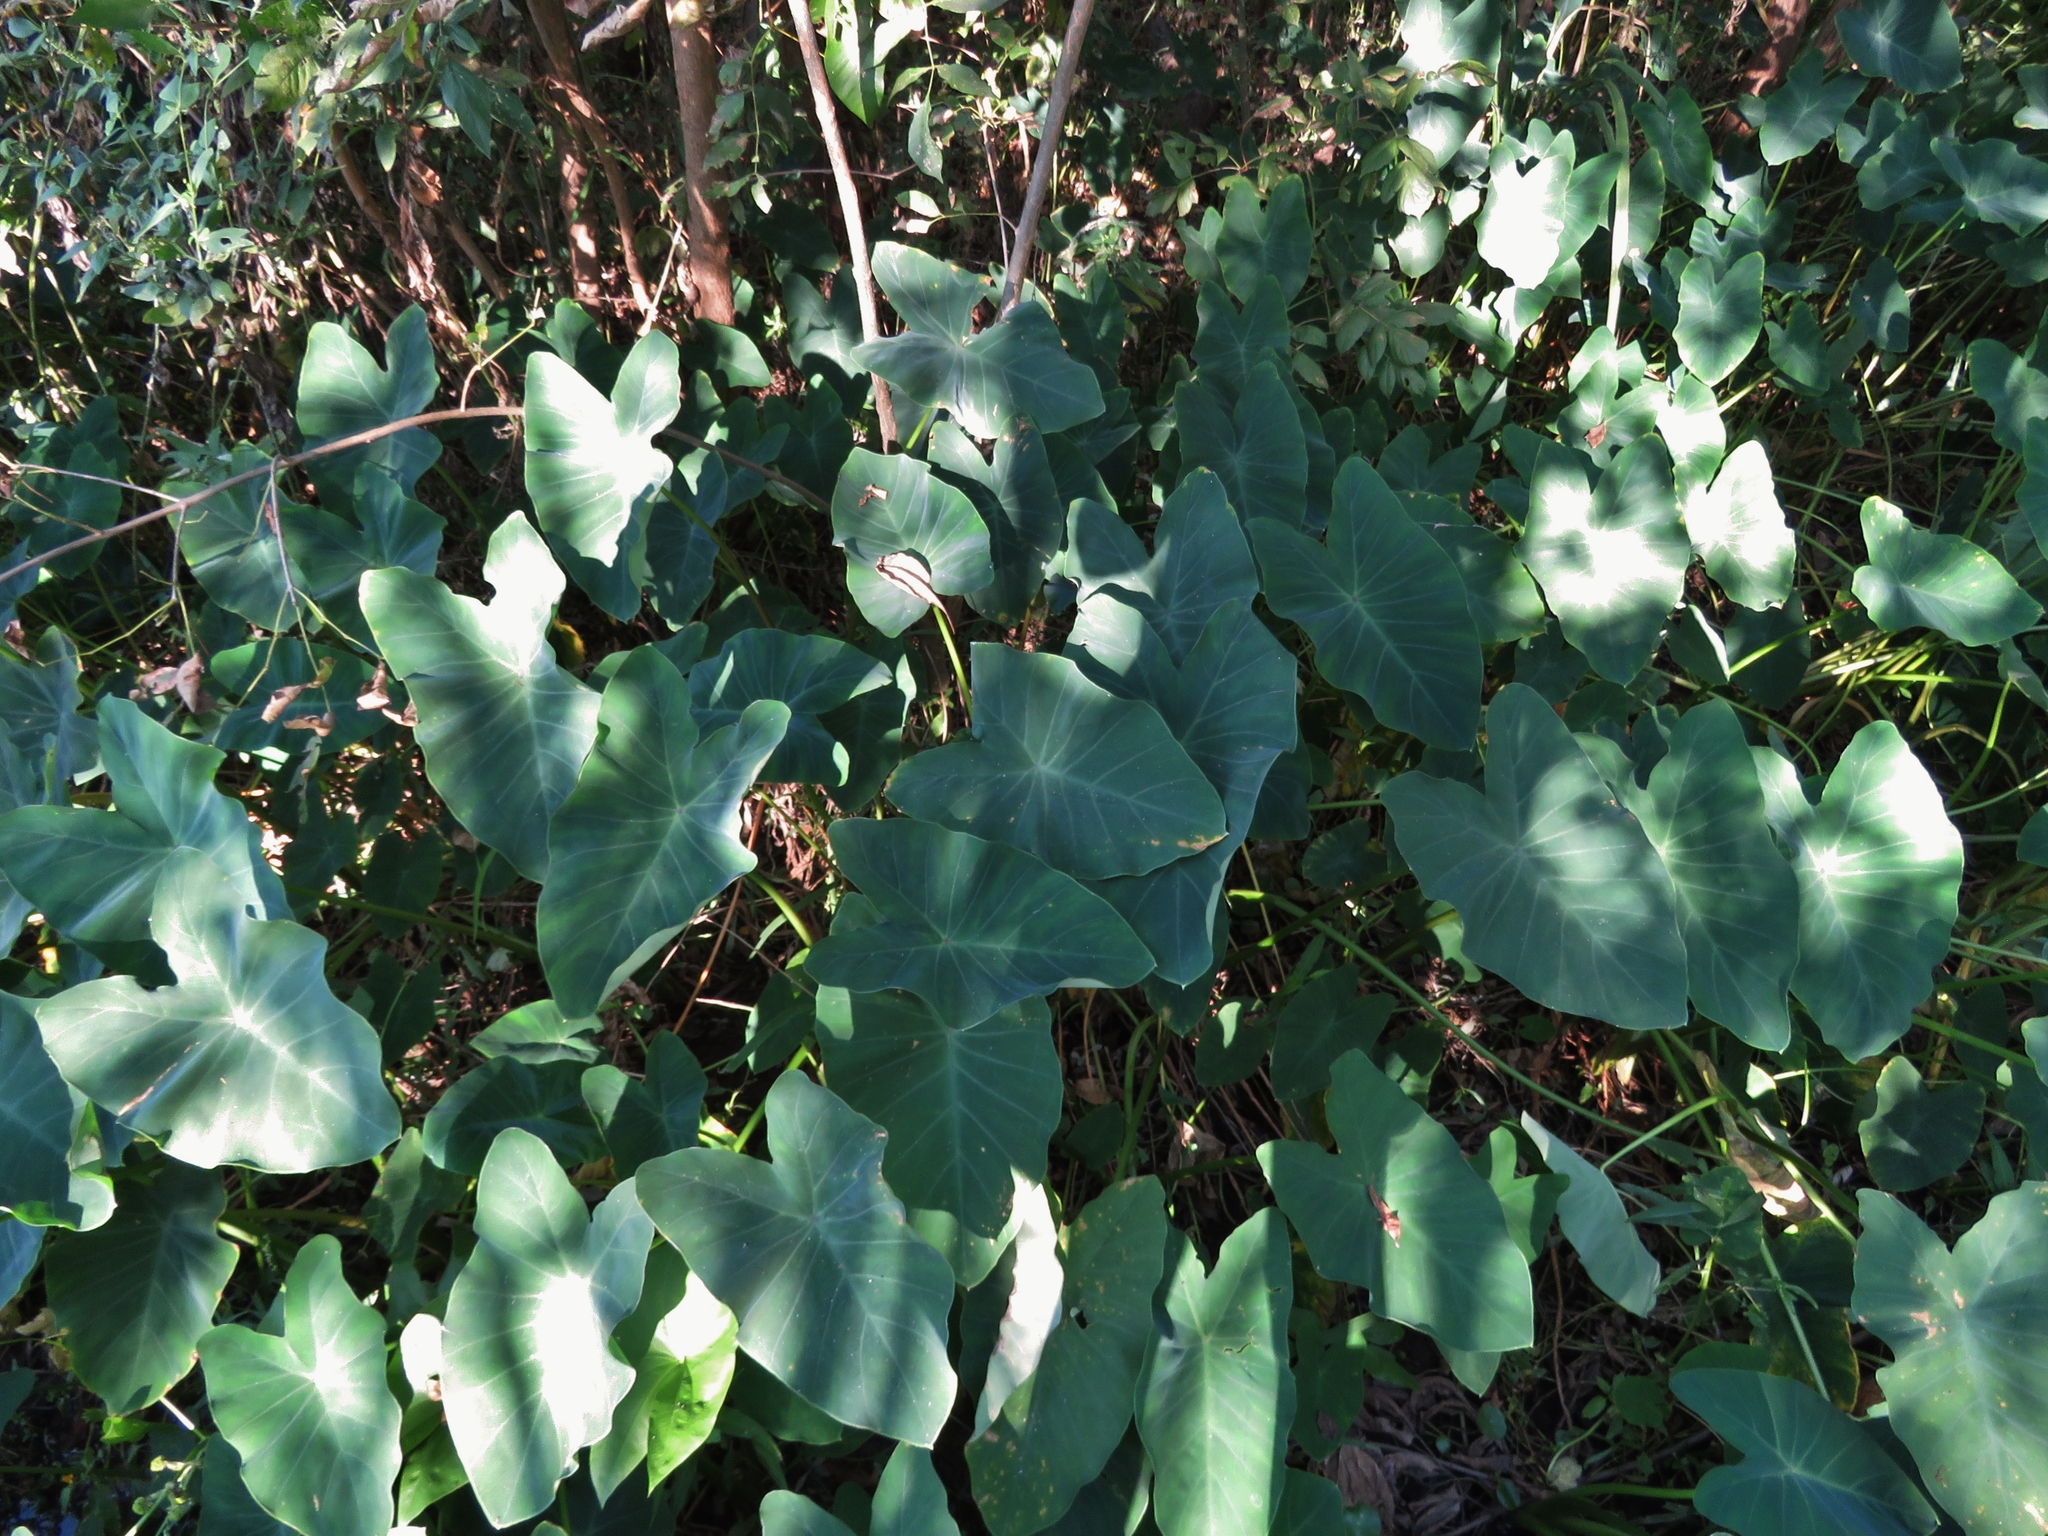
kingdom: Plantae
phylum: Tracheophyta
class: Liliopsida
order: Alismatales
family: Araceae
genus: Colocasia
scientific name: Colocasia esculenta
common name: Taro
